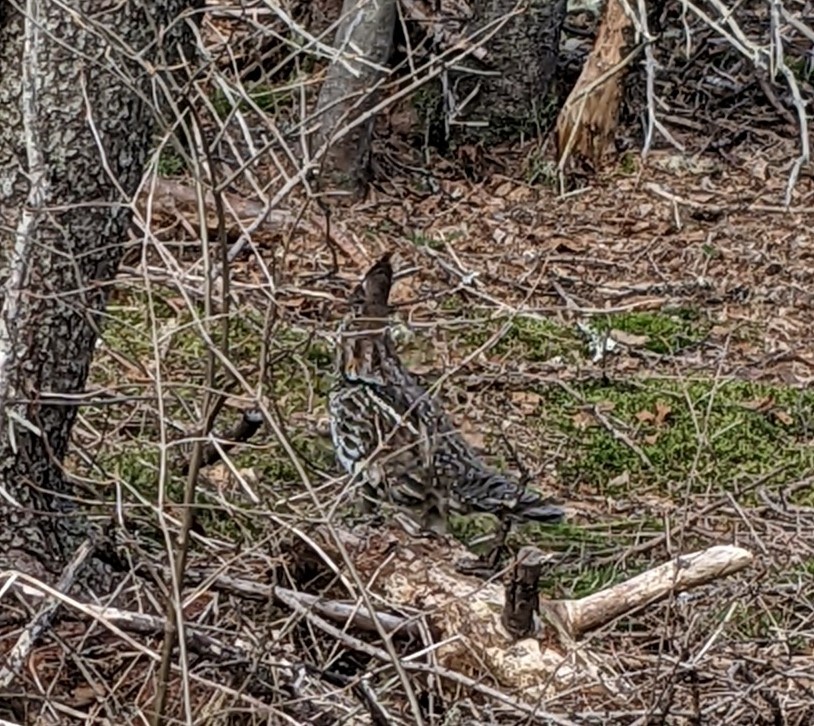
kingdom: Animalia
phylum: Chordata
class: Aves
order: Galliformes
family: Phasianidae
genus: Bonasa
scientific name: Bonasa umbellus
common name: Ruffed grouse
